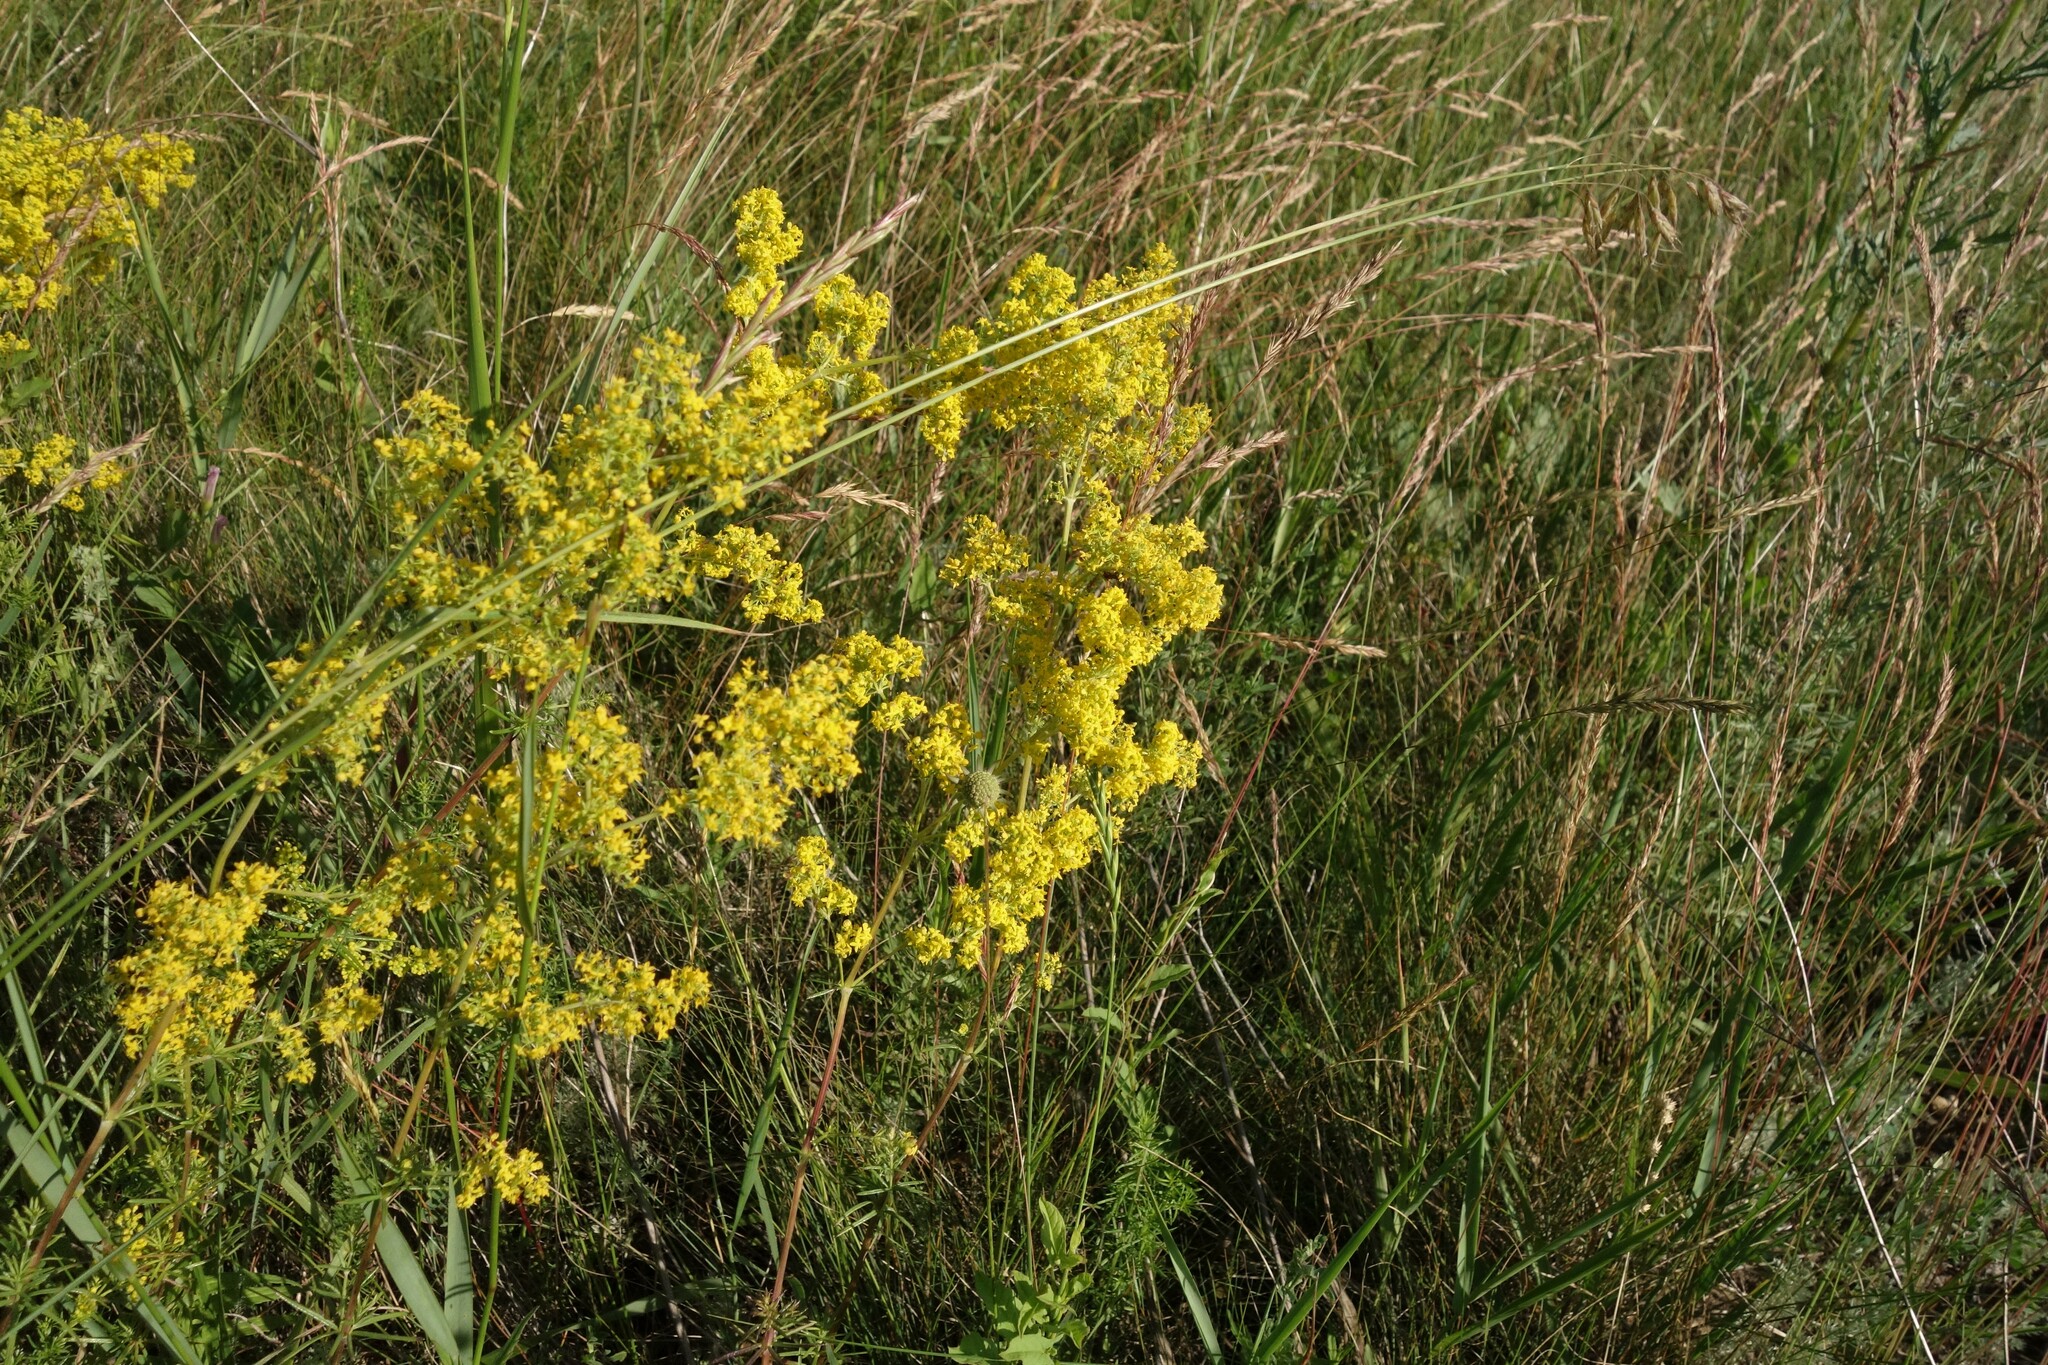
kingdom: Plantae
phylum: Tracheophyta
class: Magnoliopsida
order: Gentianales
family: Rubiaceae
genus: Galium
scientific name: Galium verum
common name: Lady's bedstraw
